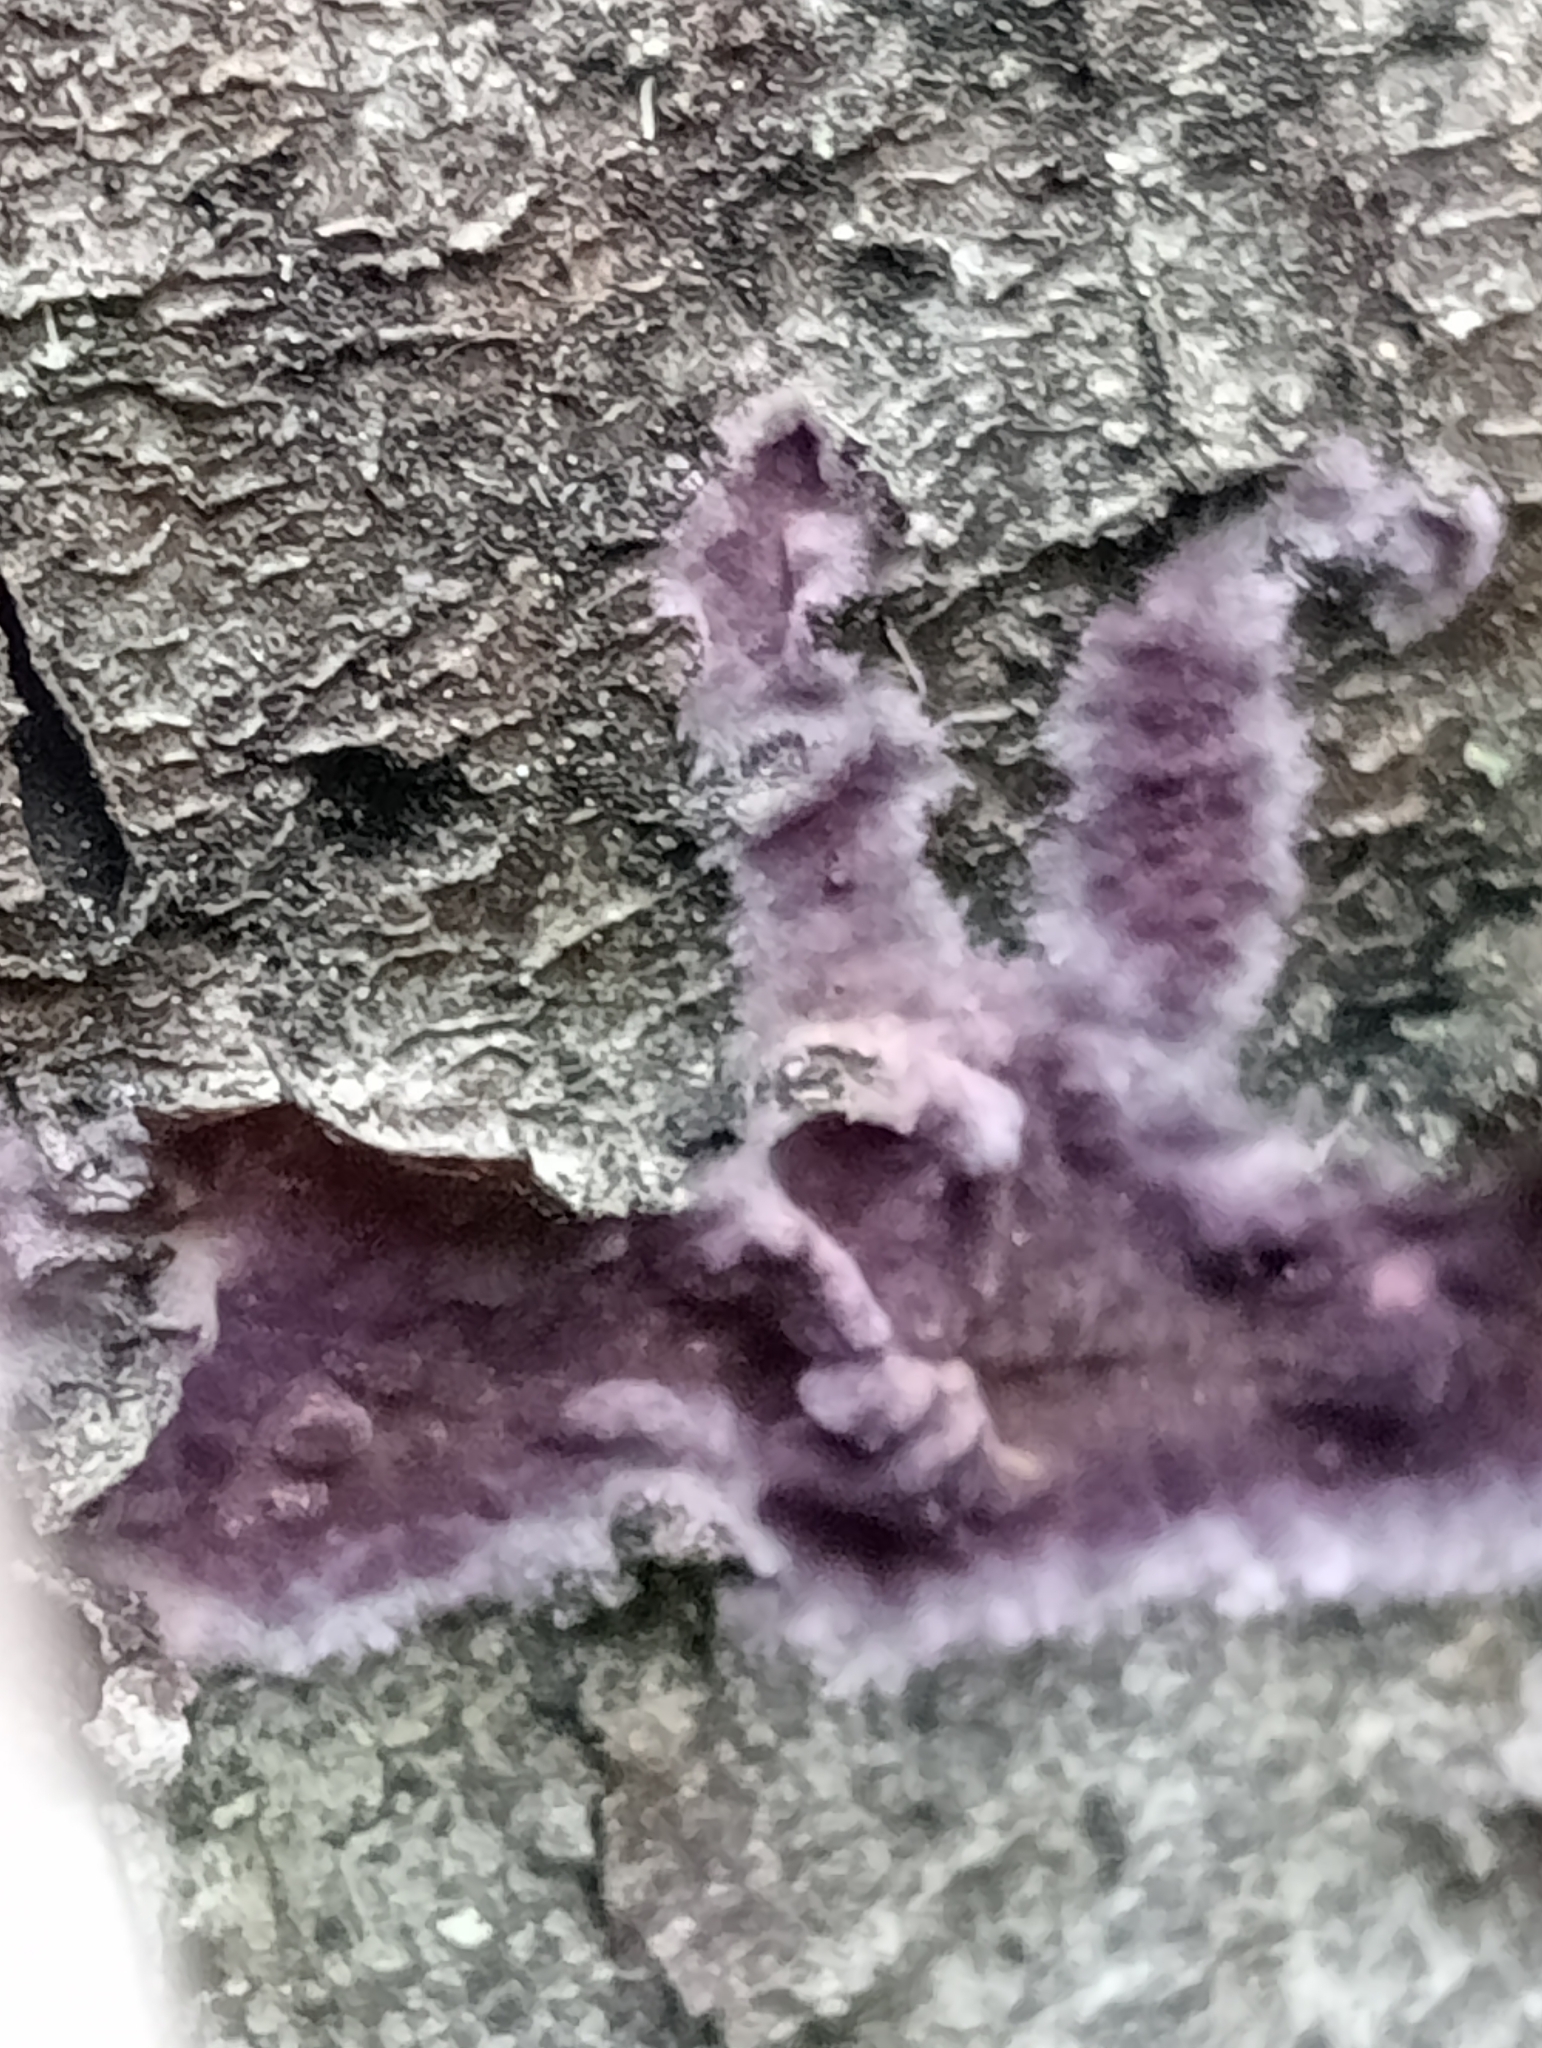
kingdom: Fungi
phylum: Basidiomycota
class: Agaricomycetes
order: Agaricales
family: Cyphellaceae
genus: Chondrostereum
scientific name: Chondrostereum purpureum
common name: Silver leaf disease
